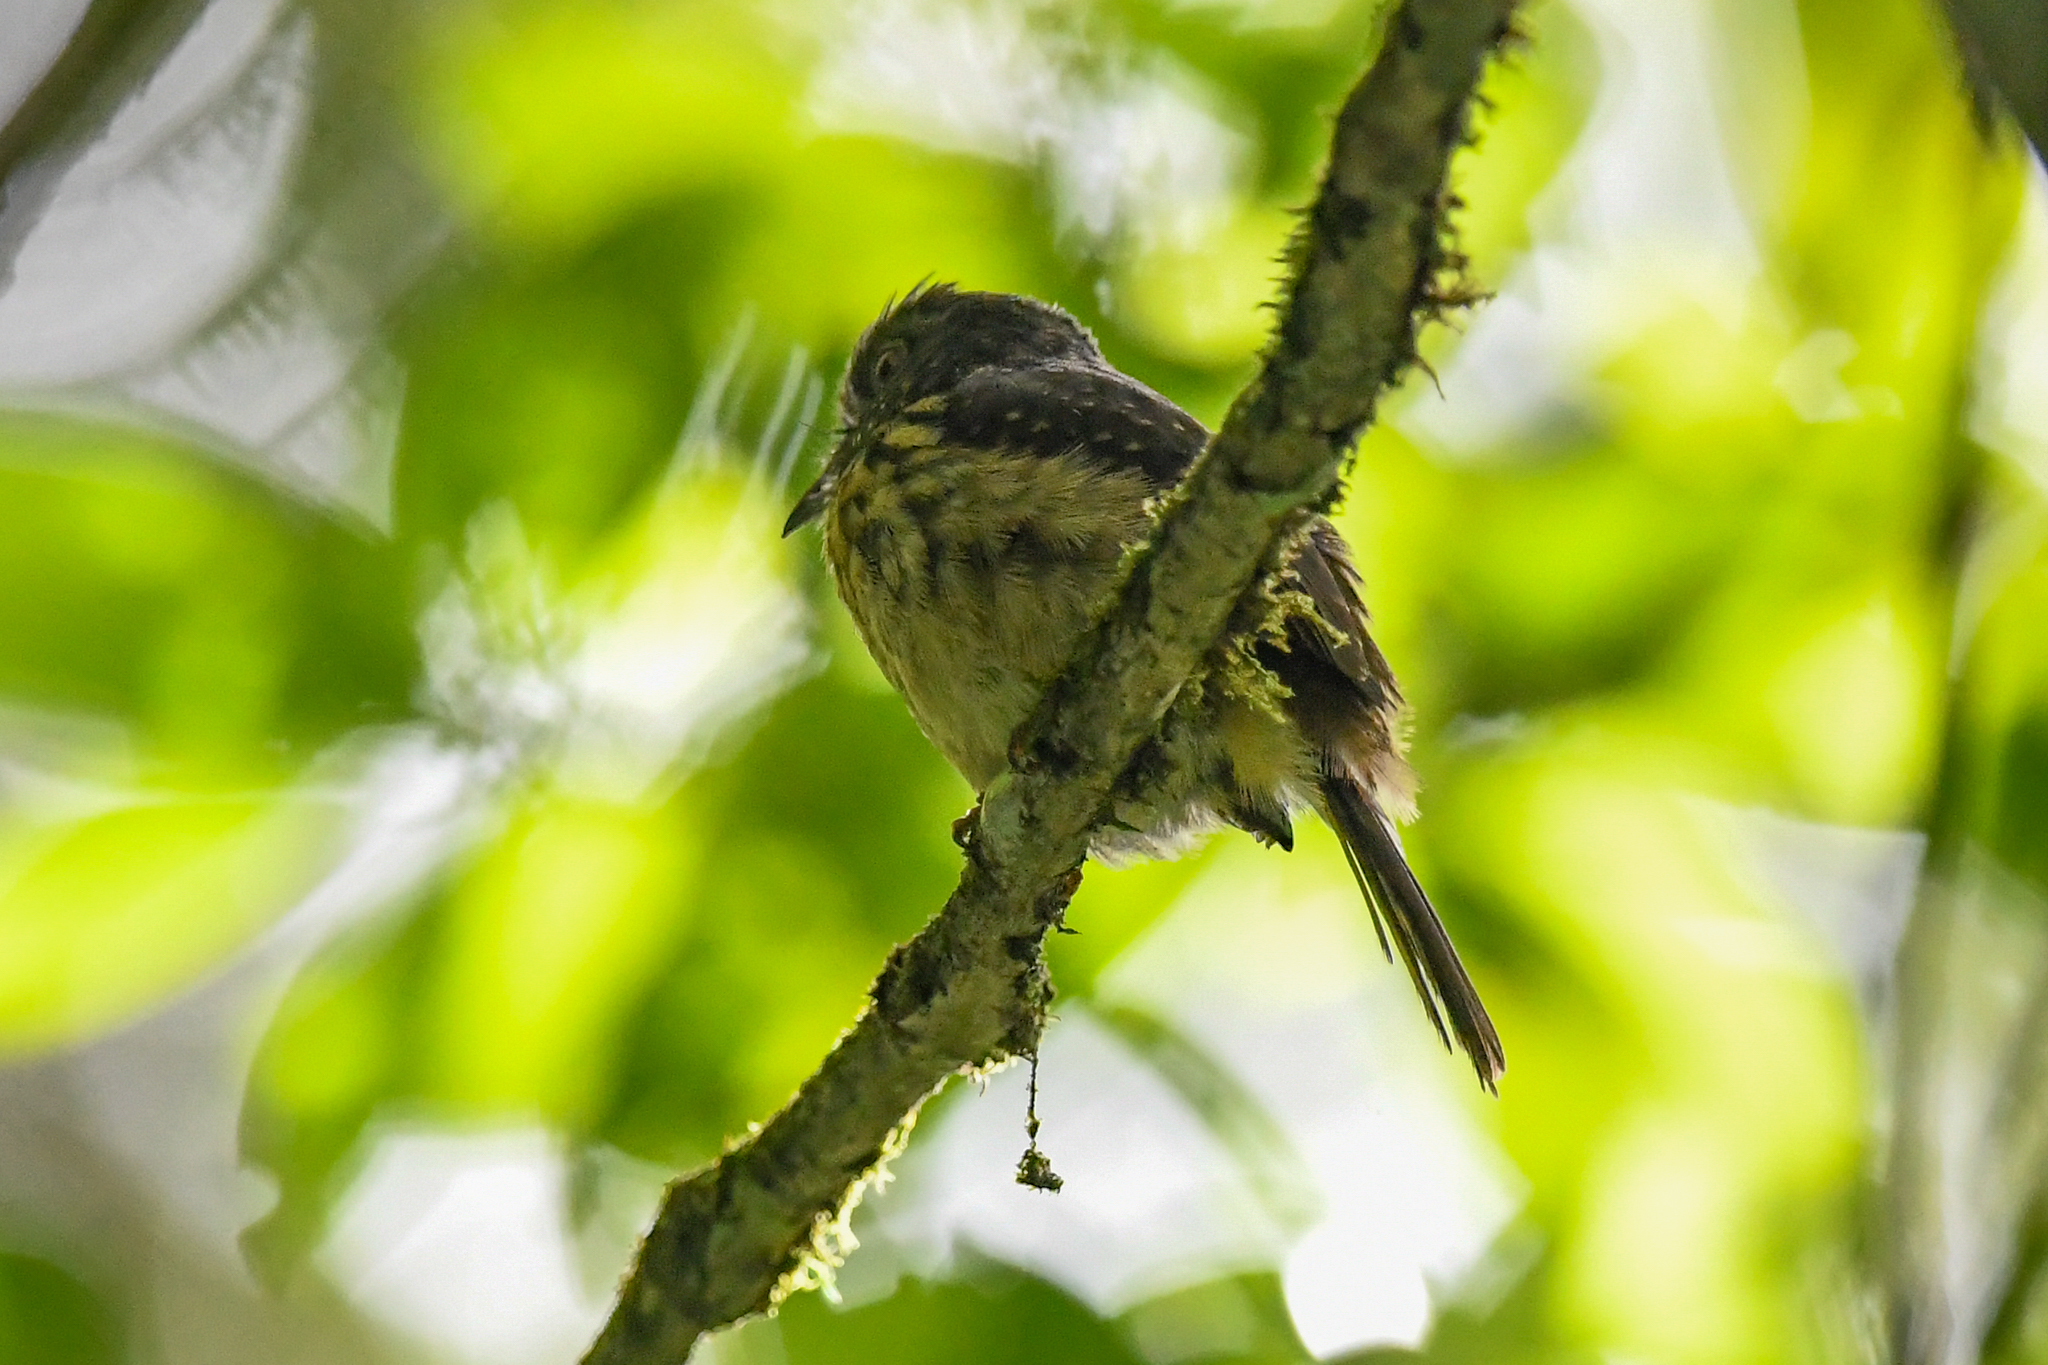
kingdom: Animalia
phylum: Chordata
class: Aves
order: Piciformes
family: Bucconidae
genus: Malacoptila
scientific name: Malacoptila panamensis
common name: White-whiskered puffbird
